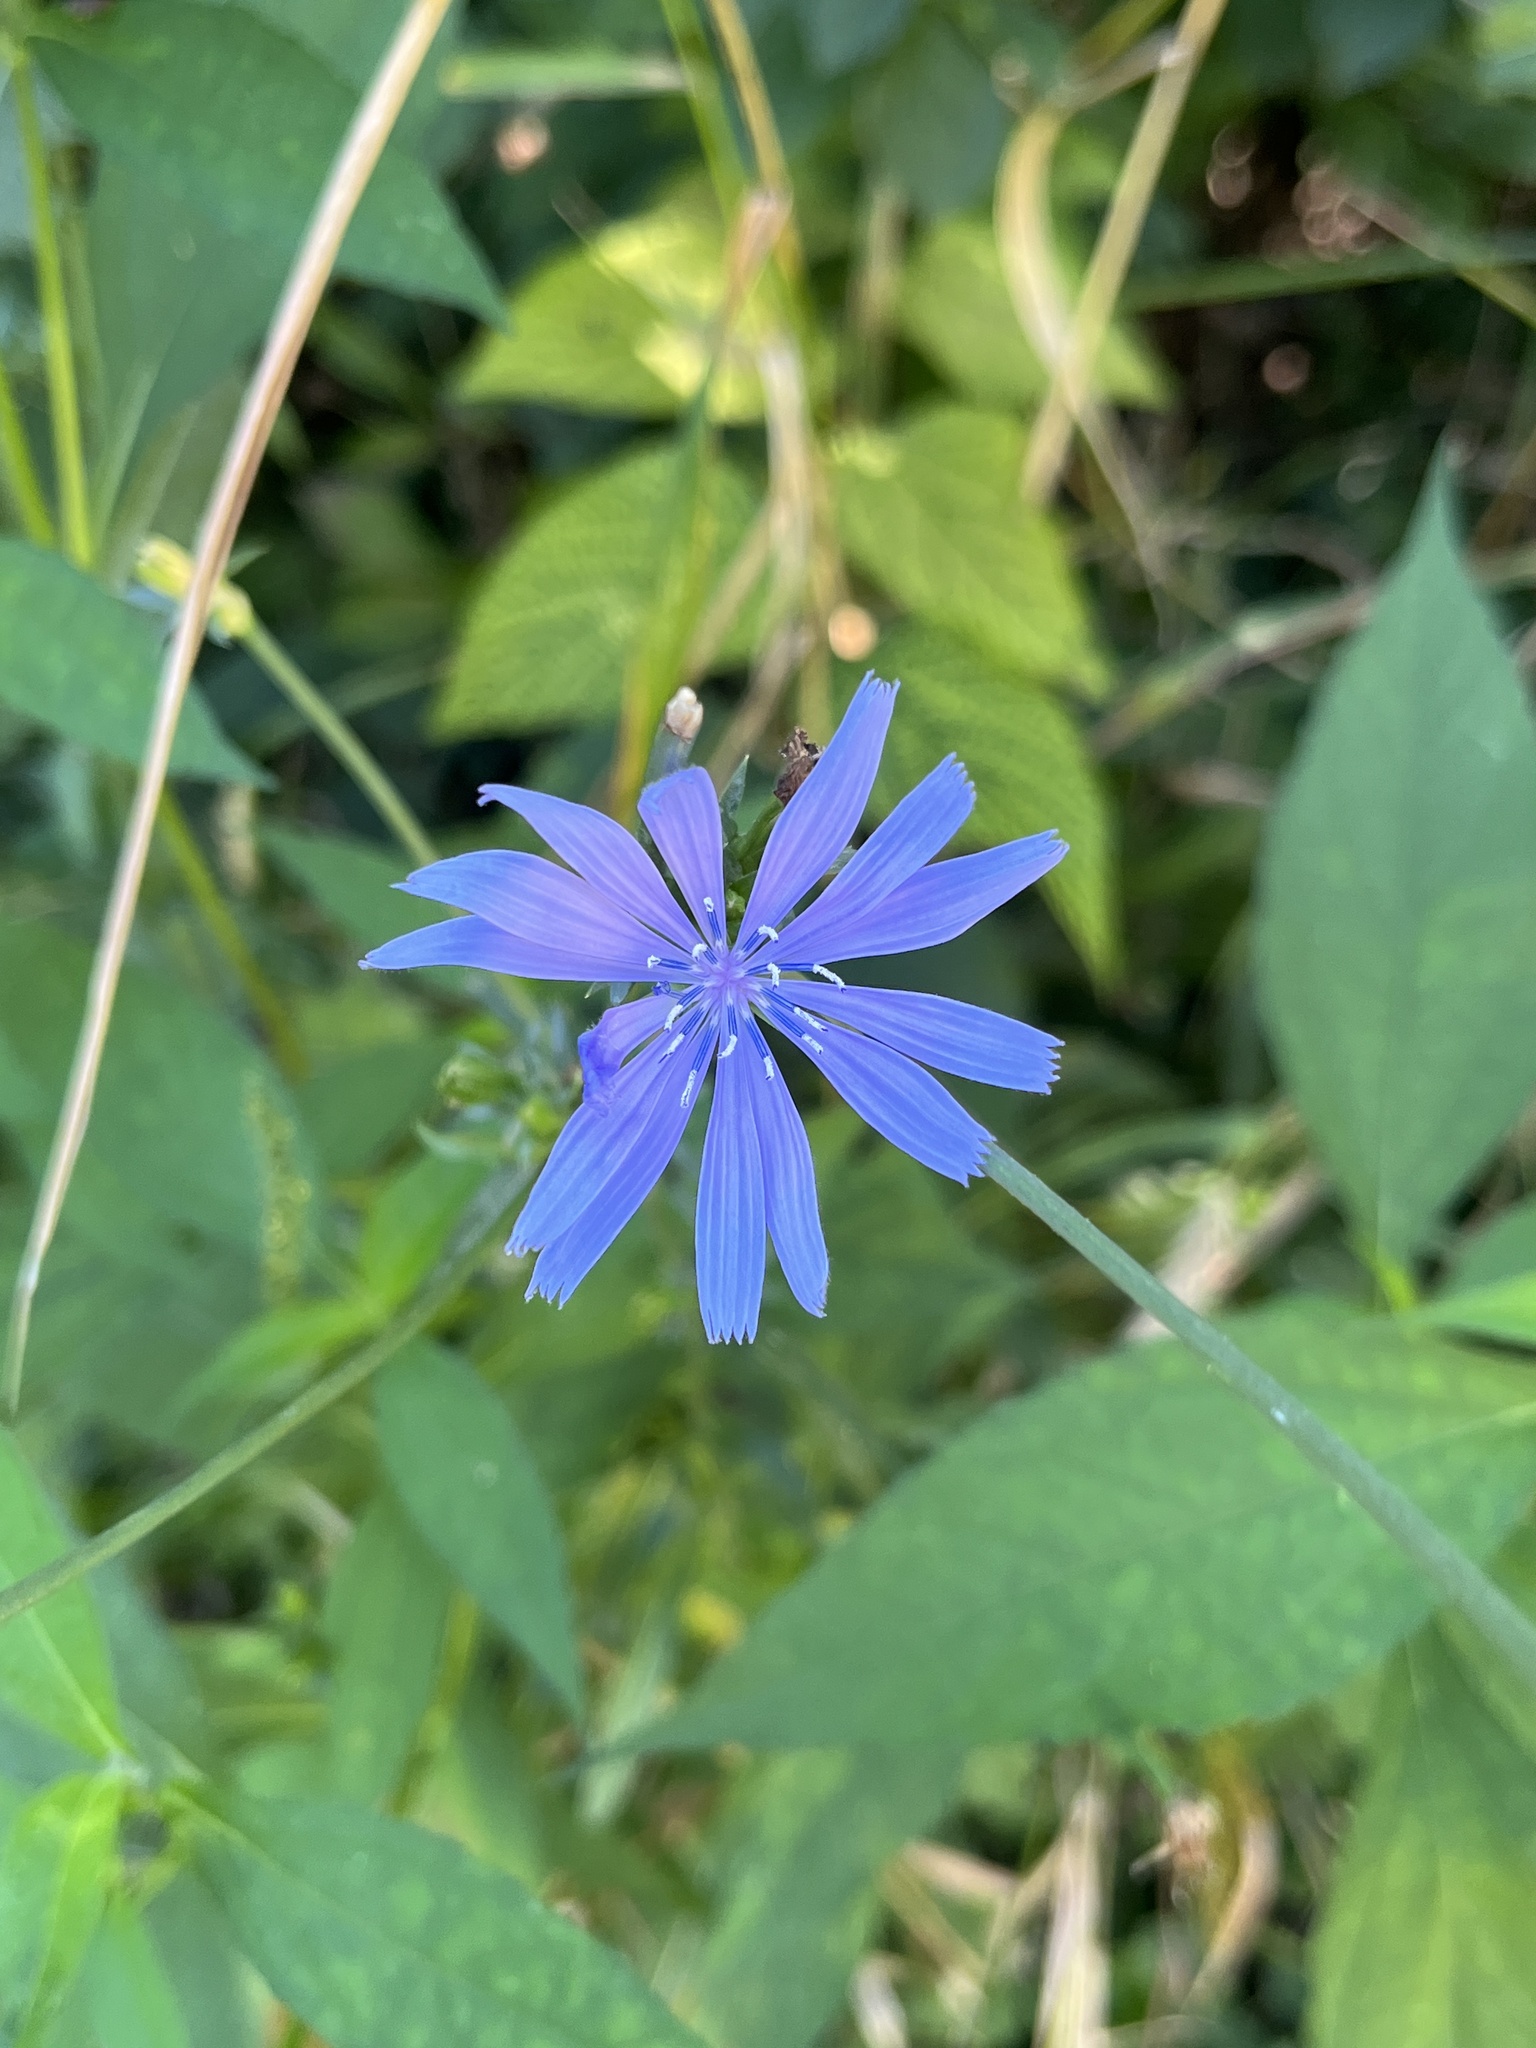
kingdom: Plantae
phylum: Tracheophyta
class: Magnoliopsida
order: Asterales
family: Asteraceae
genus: Cichorium
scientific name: Cichorium intybus
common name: Chicory
